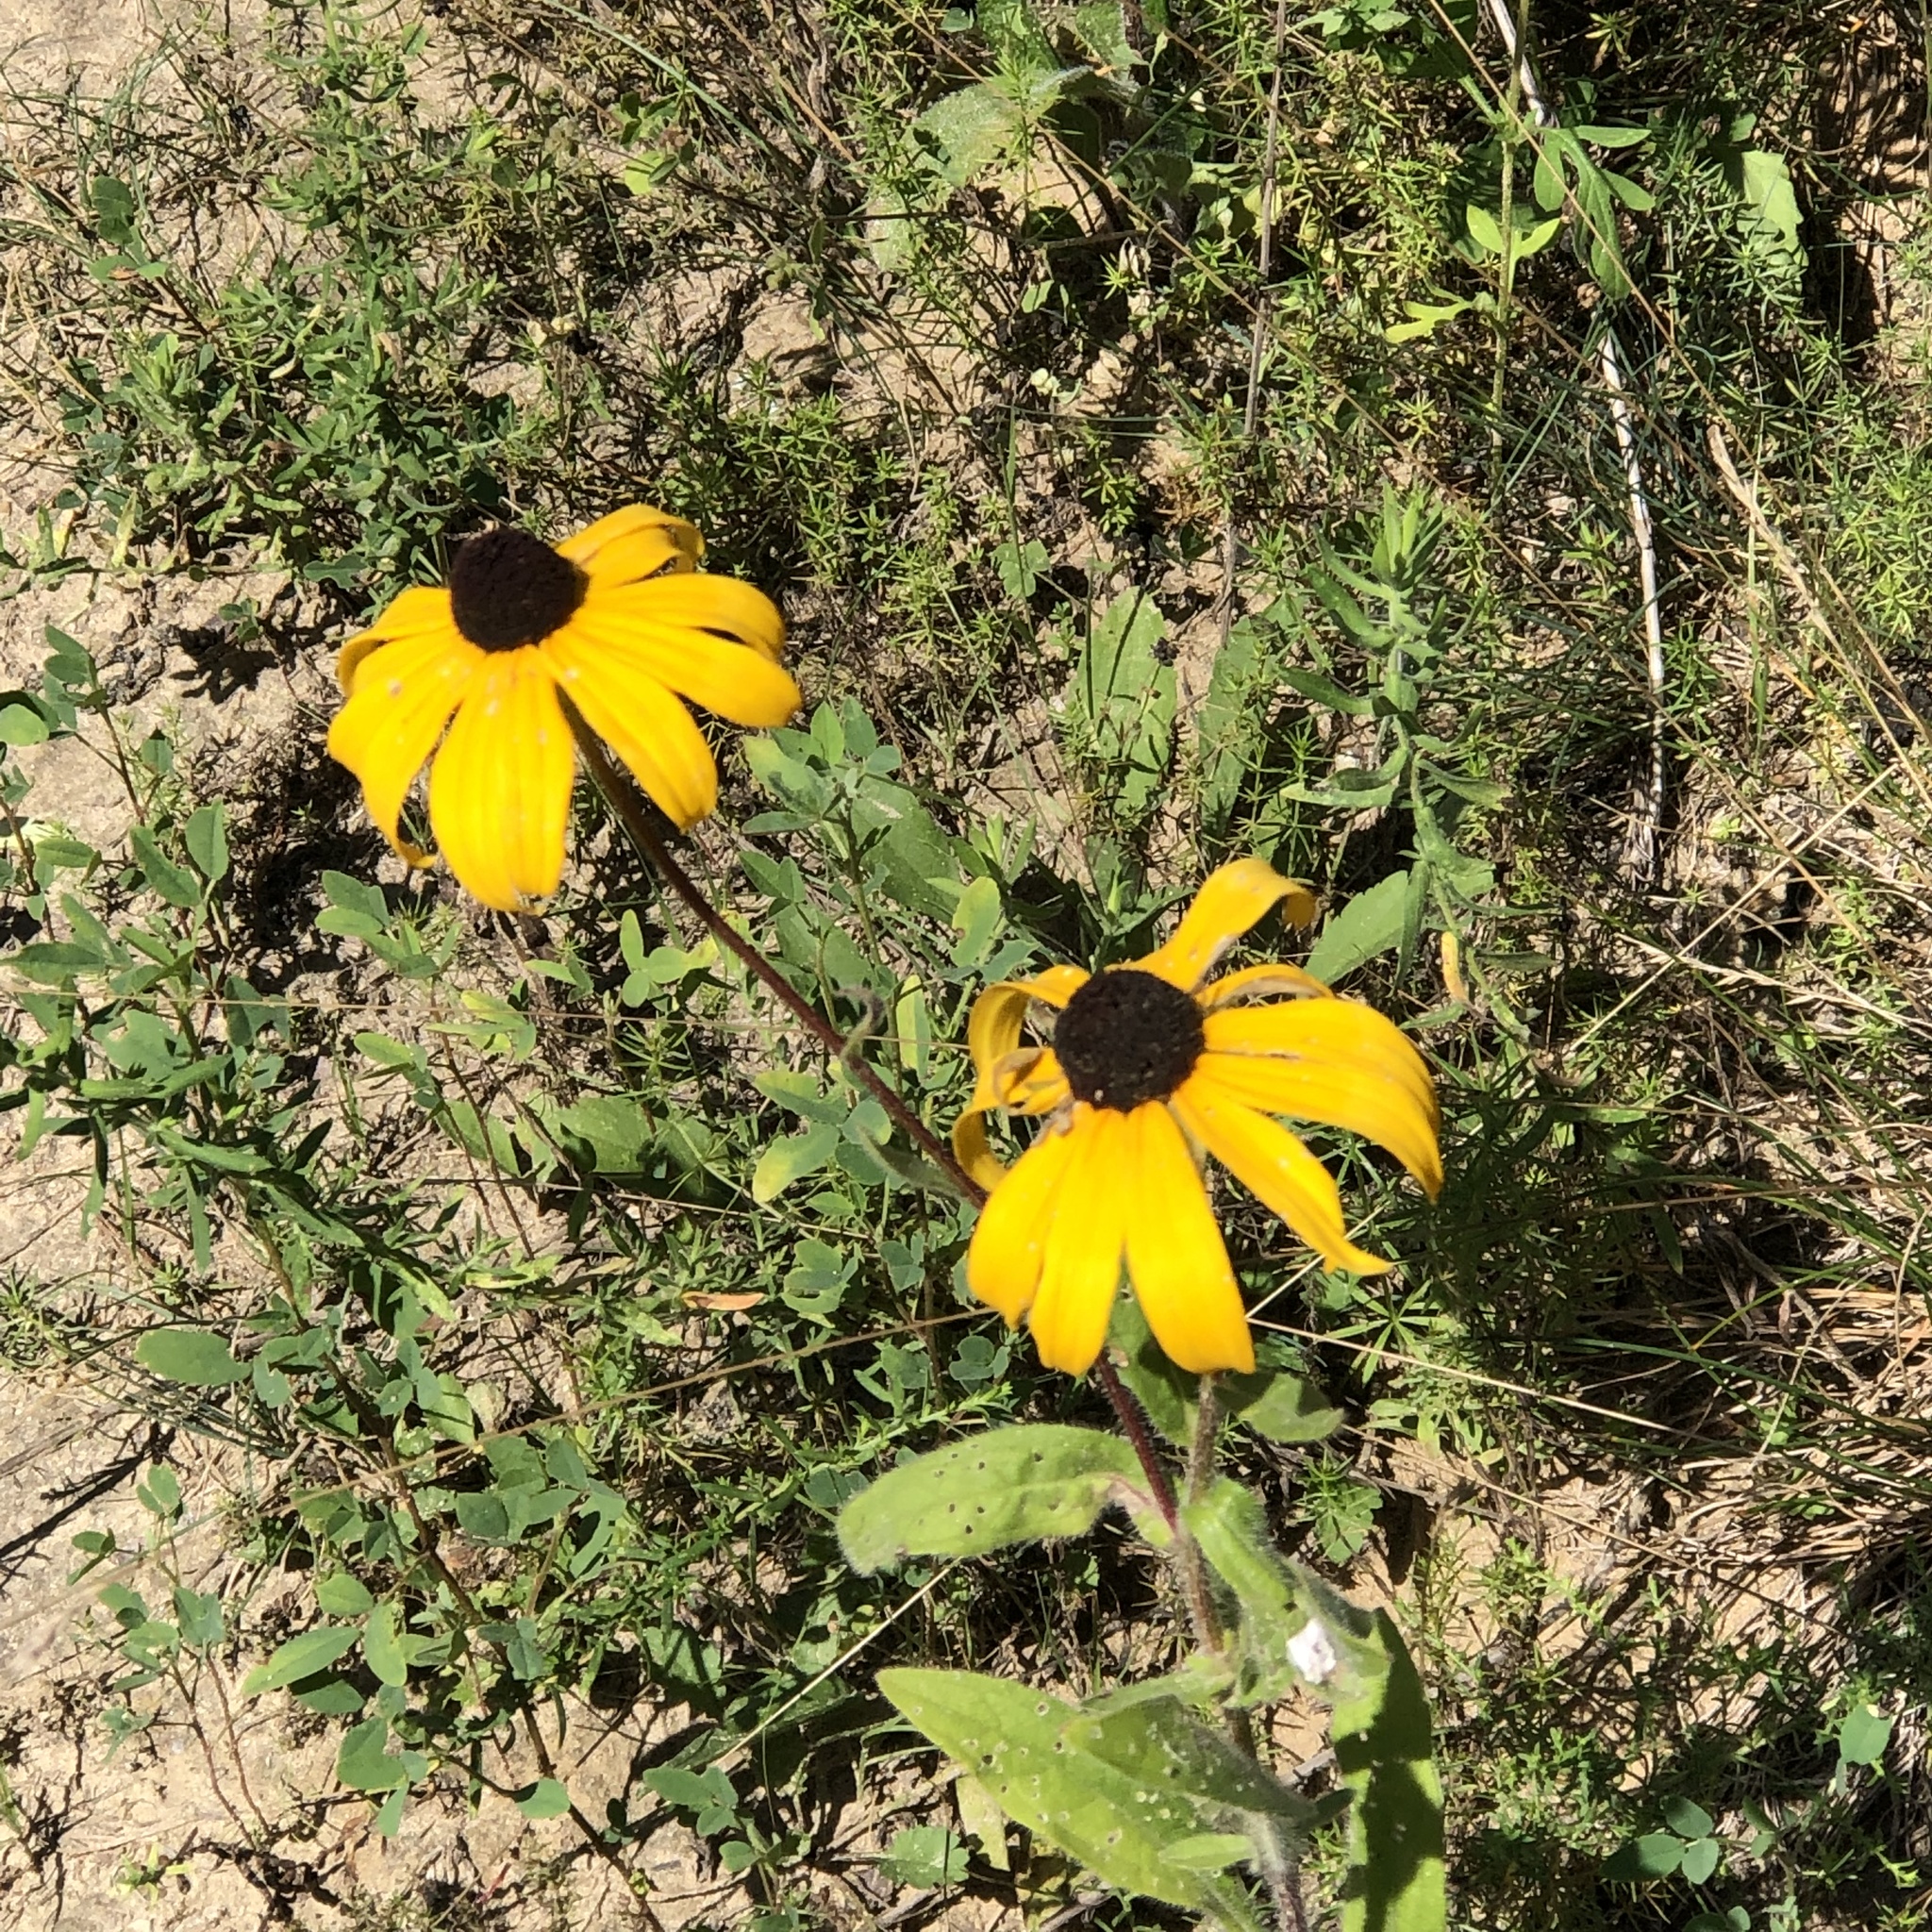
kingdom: Plantae
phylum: Tracheophyta
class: Magnoliopsida
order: Asterales
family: Asteraceae
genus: Rudbeckia
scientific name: Rudbeckia hirta
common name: Black-eyed-susan
